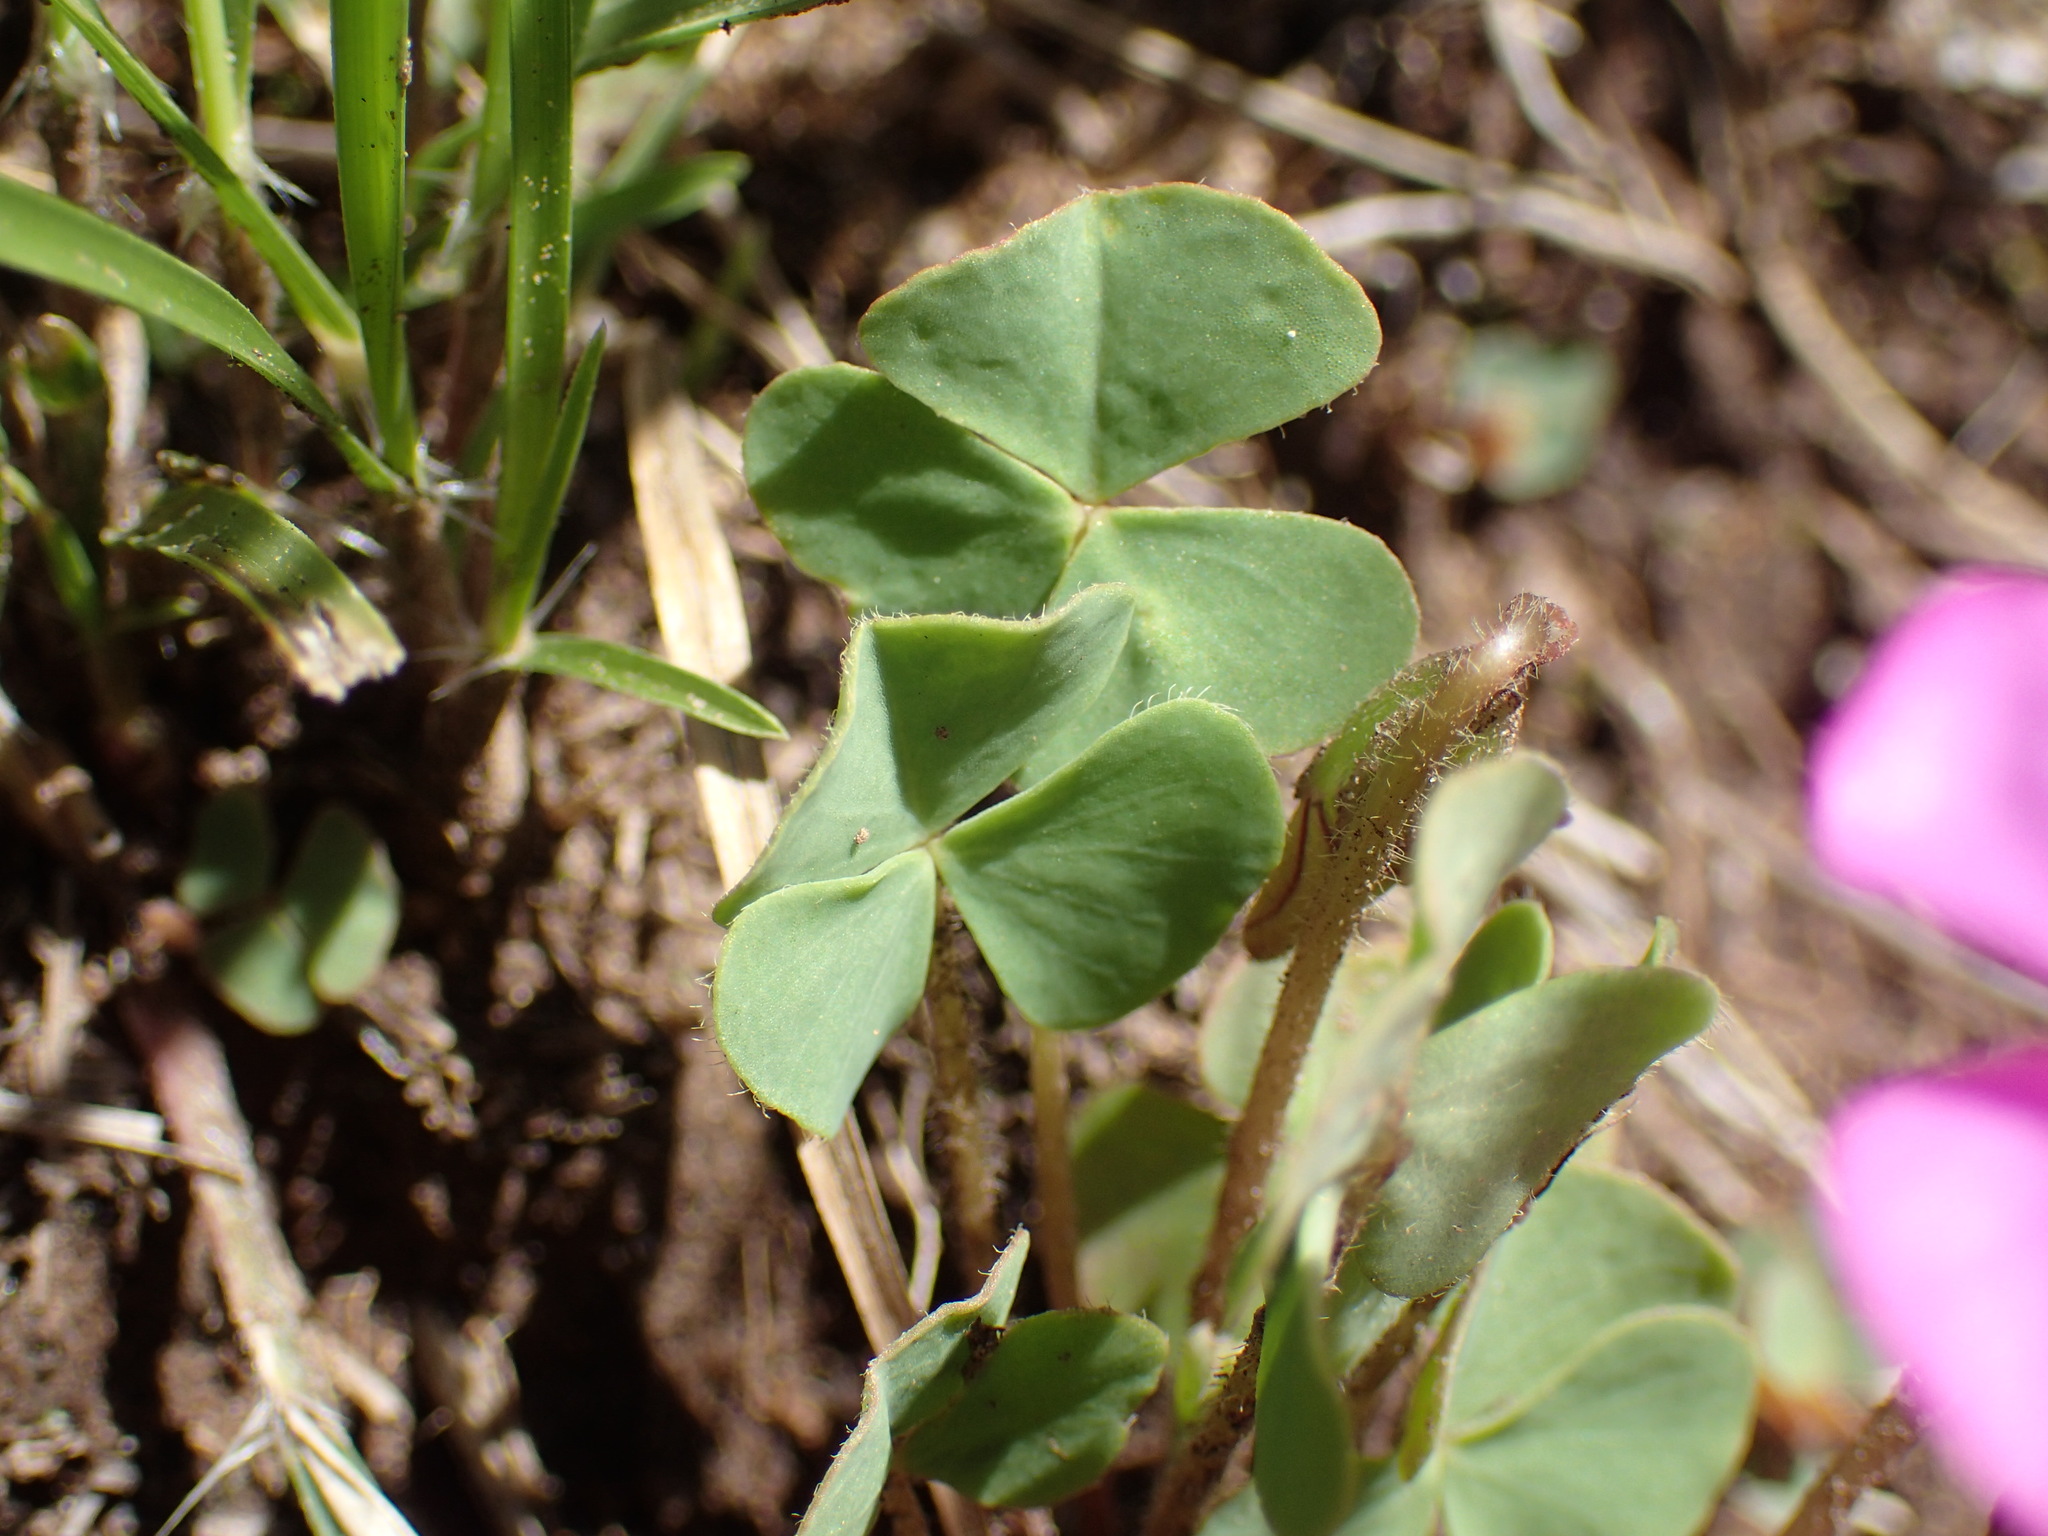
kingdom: Plantae
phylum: Tracheophyta
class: Magnoliopsida
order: Oxalidales
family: Oxalidaceae
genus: Oxalis
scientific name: Oxalis obliquifolia
